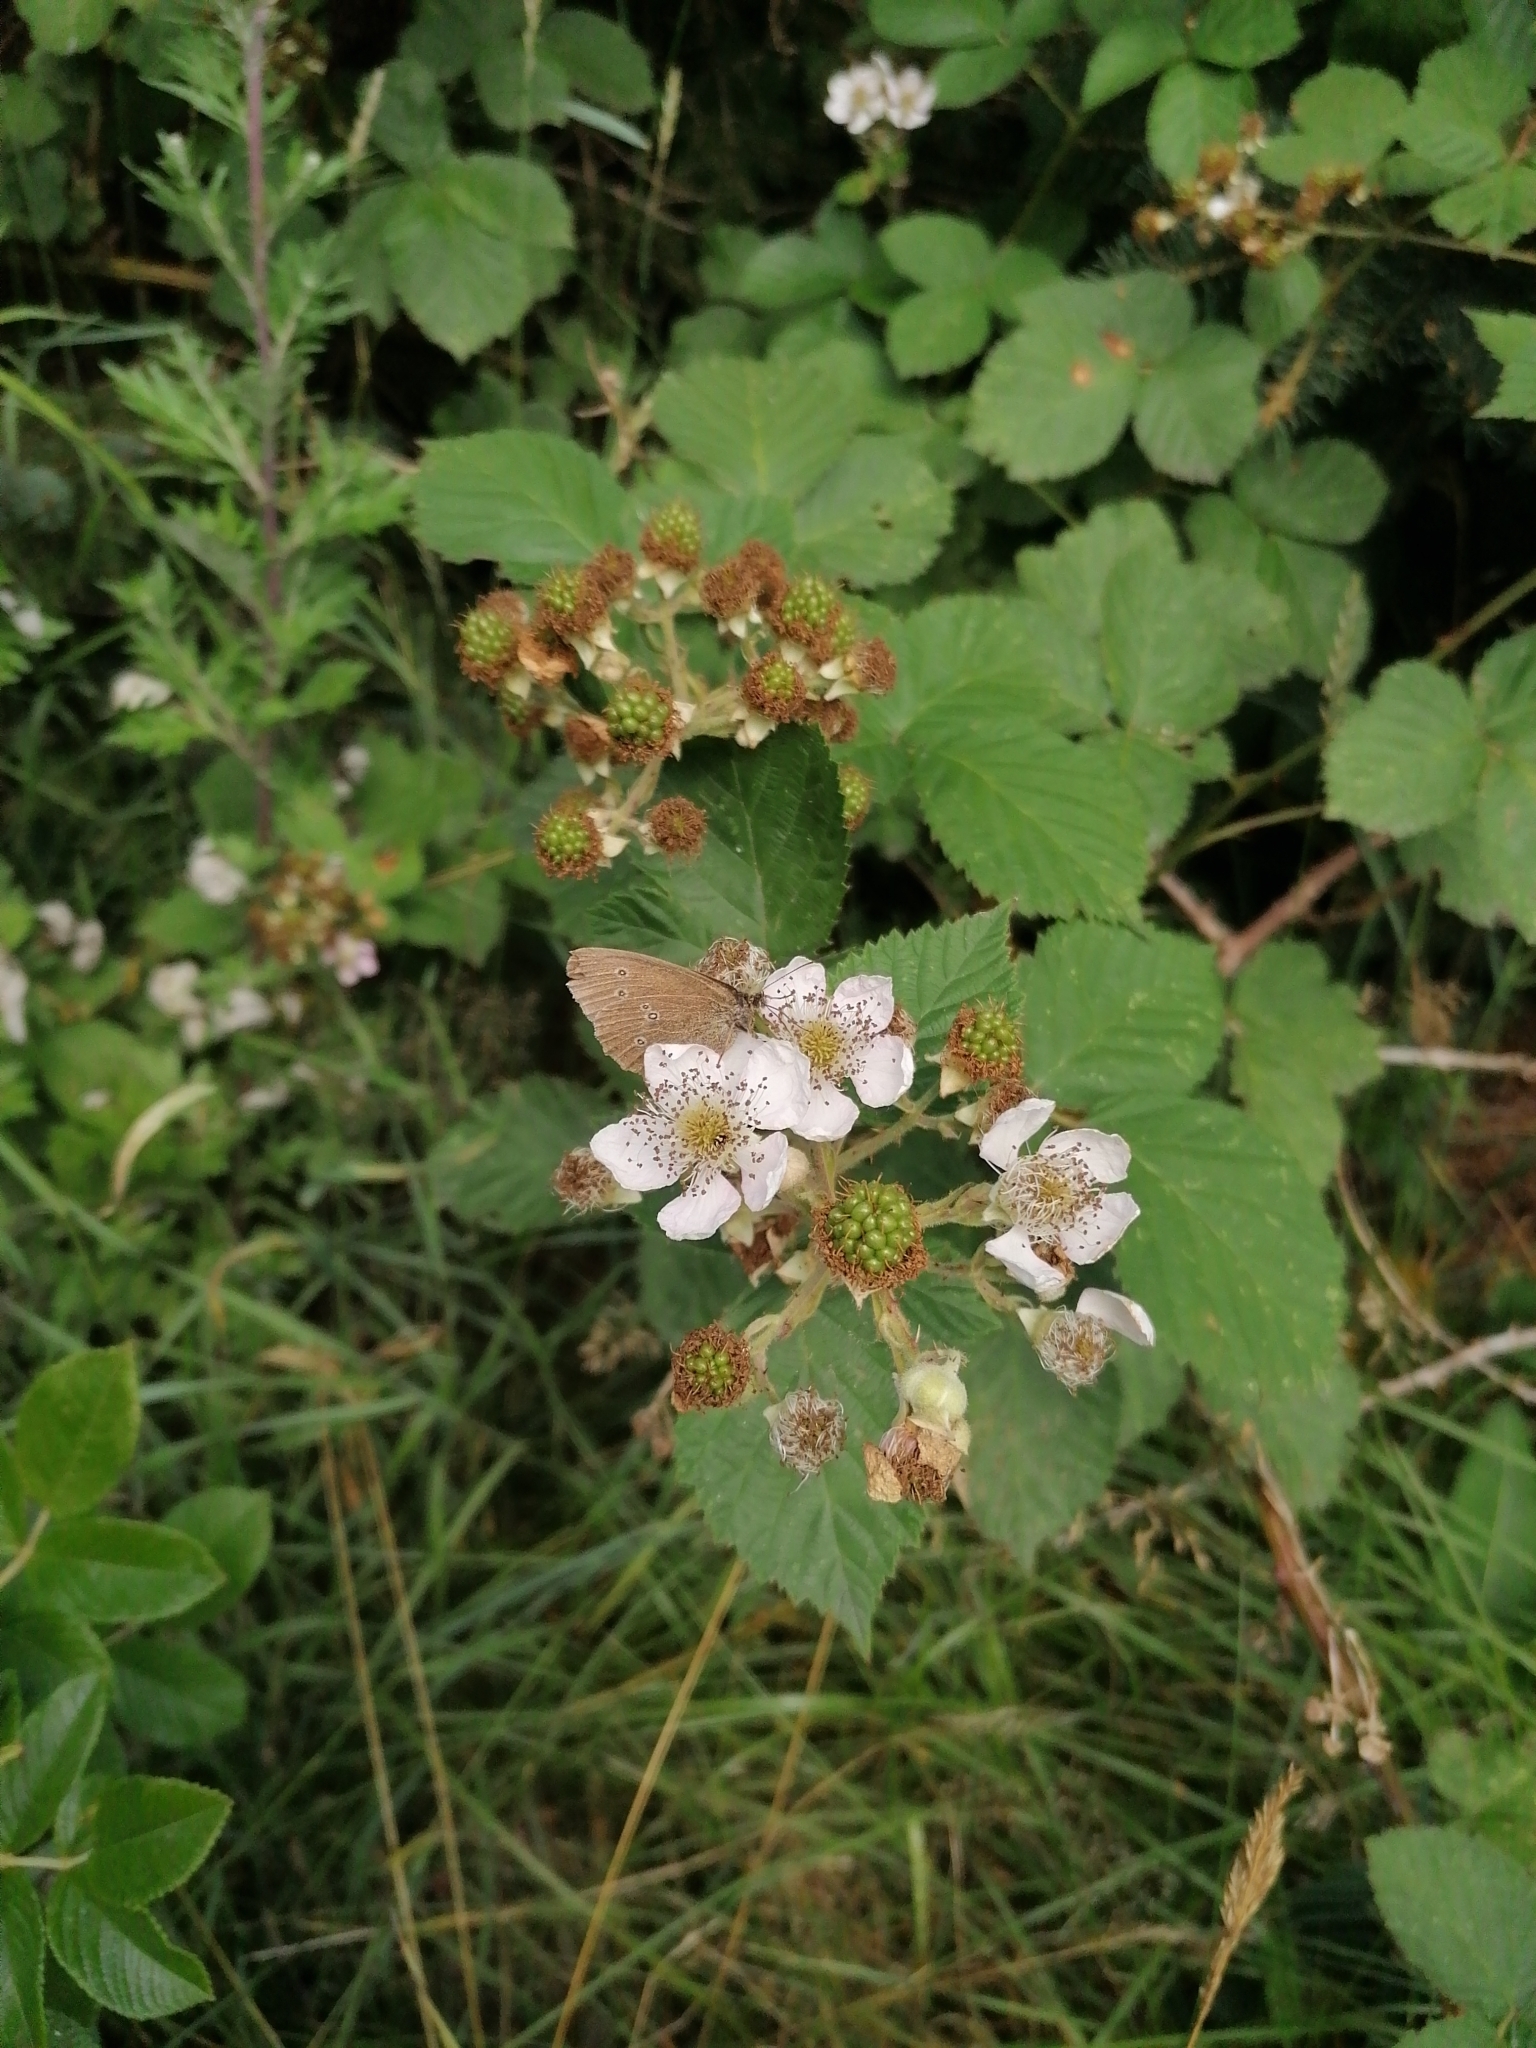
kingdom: Animalia
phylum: Arthropoda
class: Insecta
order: Lepidoptera
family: Nymphalidae
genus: Aphantopus
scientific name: Aphantopus hyperantus
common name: Ringlet
